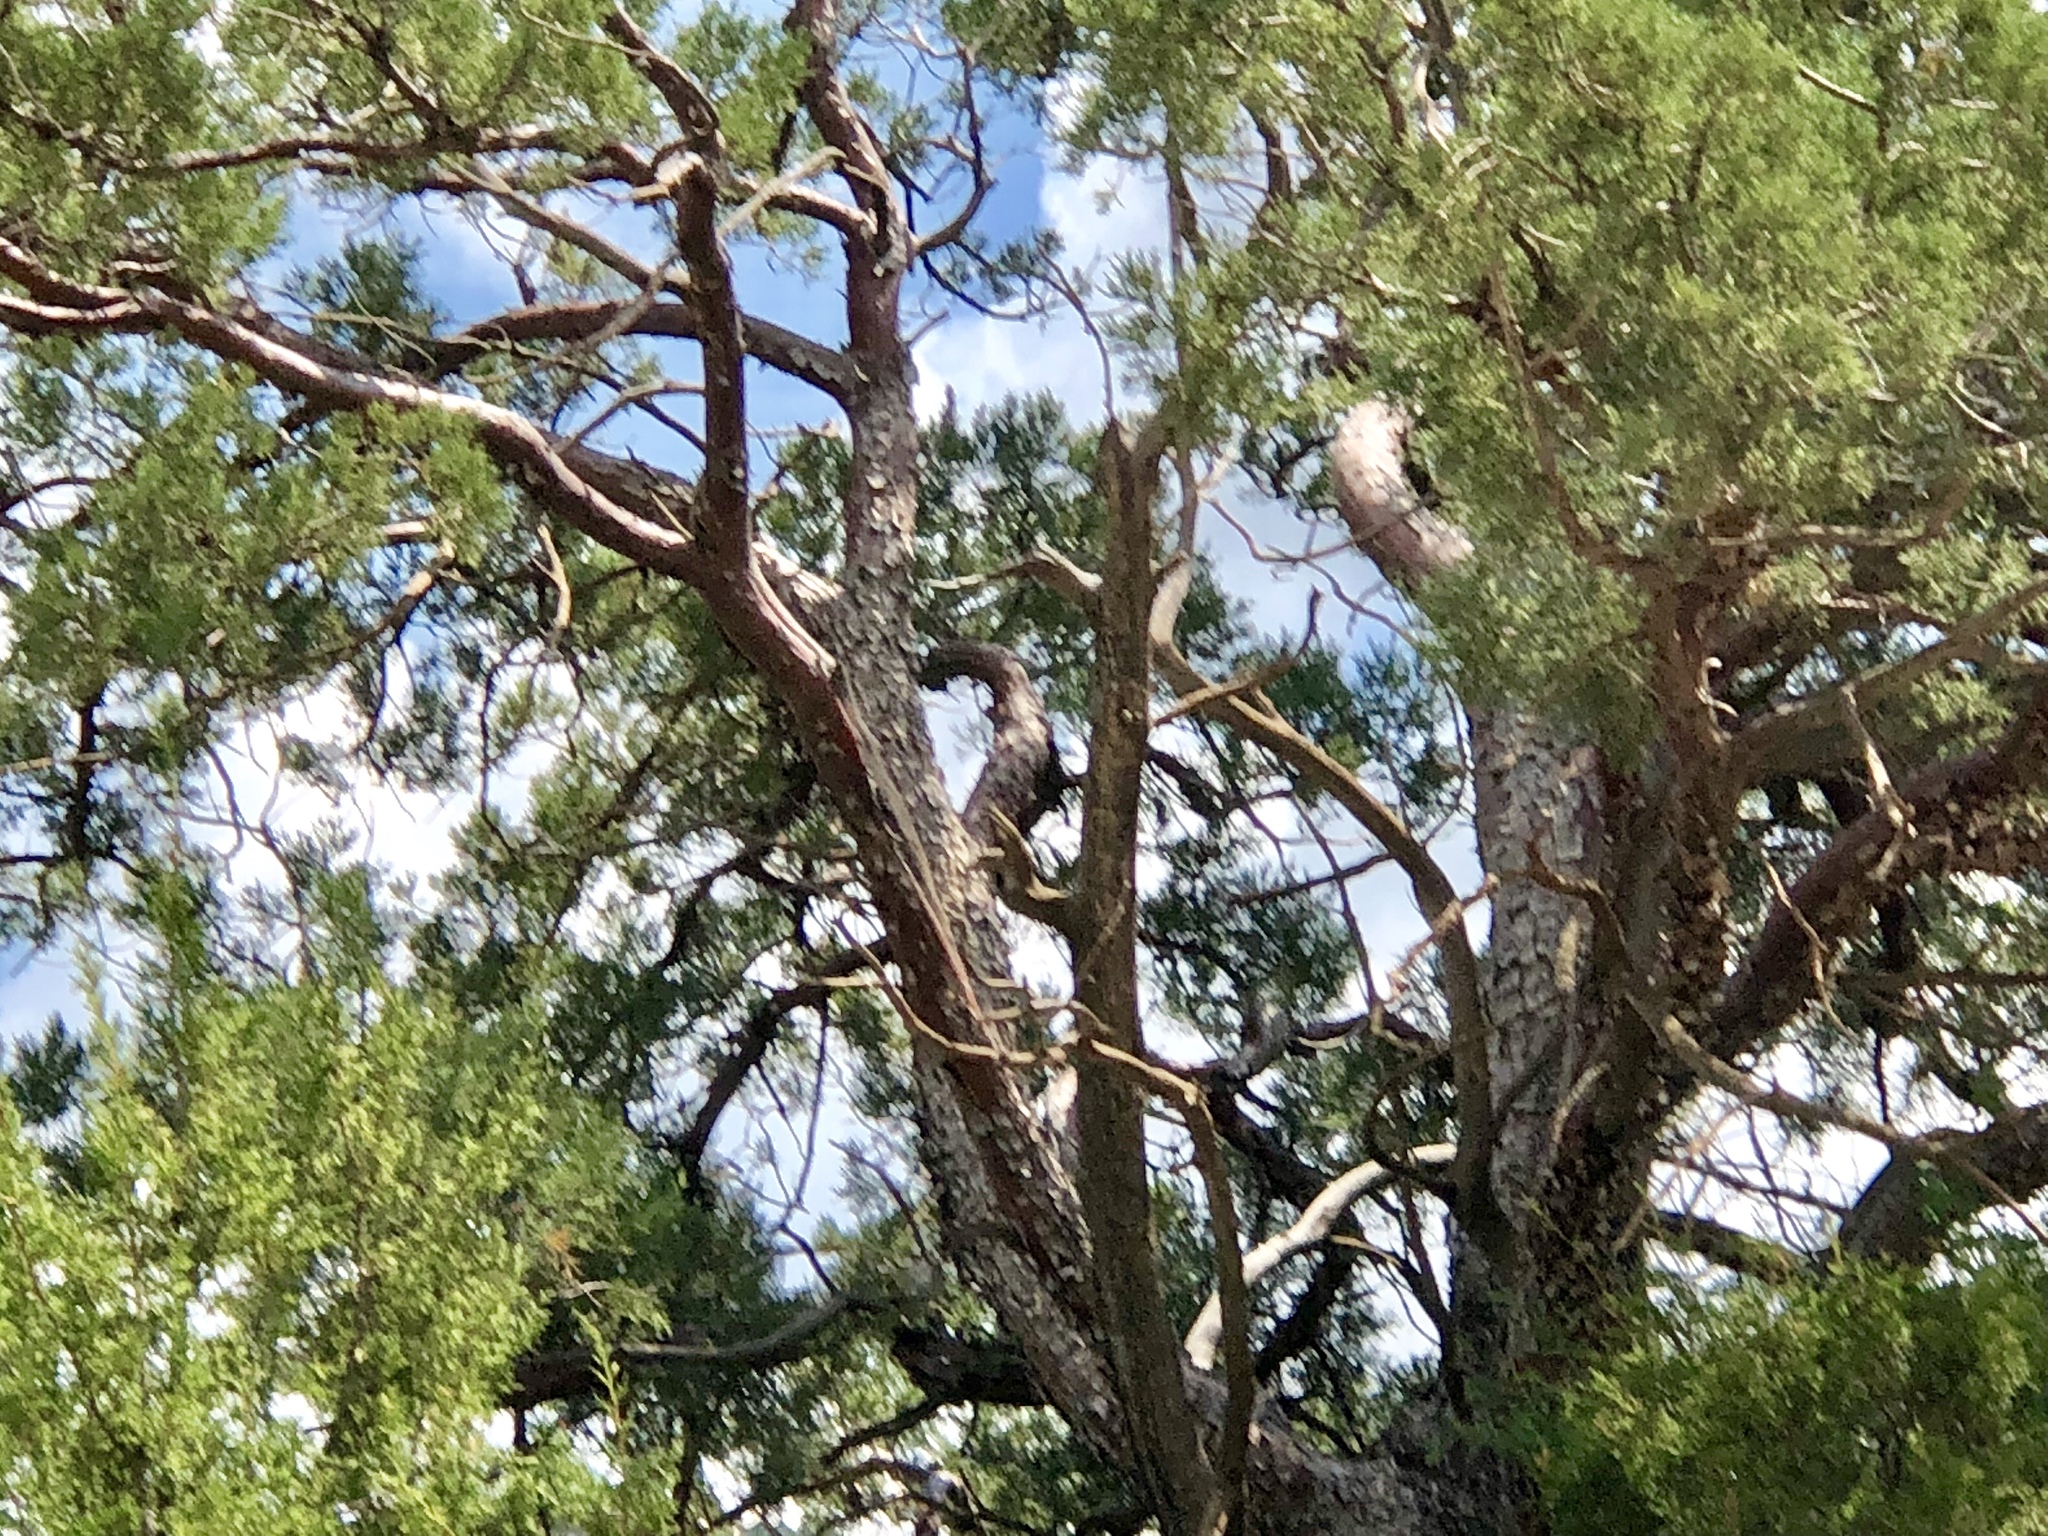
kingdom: Plantae
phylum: Tracheophyta
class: Pinopsida
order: Pinales
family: Cupressaceae
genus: Juniperus
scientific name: Juniperus deppeana
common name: Alligator juniper
